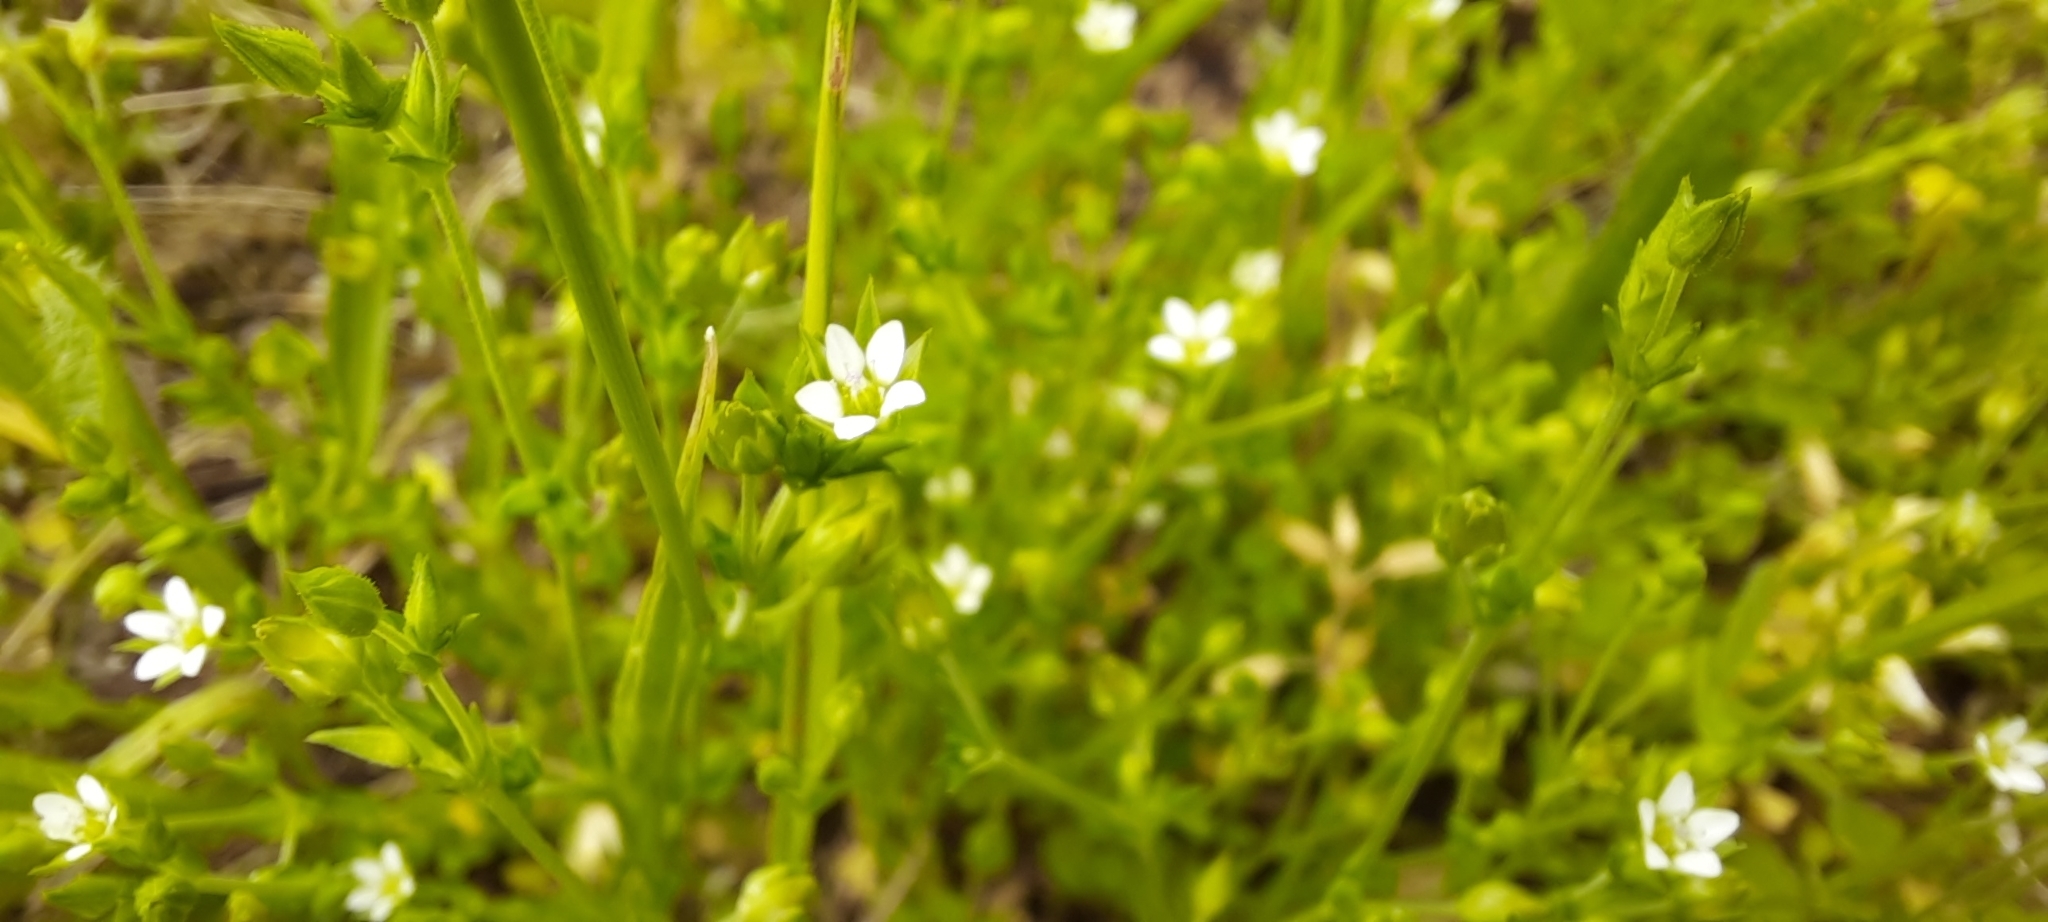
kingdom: Plantae
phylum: Tracheophyta
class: Magnoliopsida
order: Caryophyllales
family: Caryophyllaceae
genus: Arenaria
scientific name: Arenaria serpyllifolia
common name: Thyme-leaved sandwort
